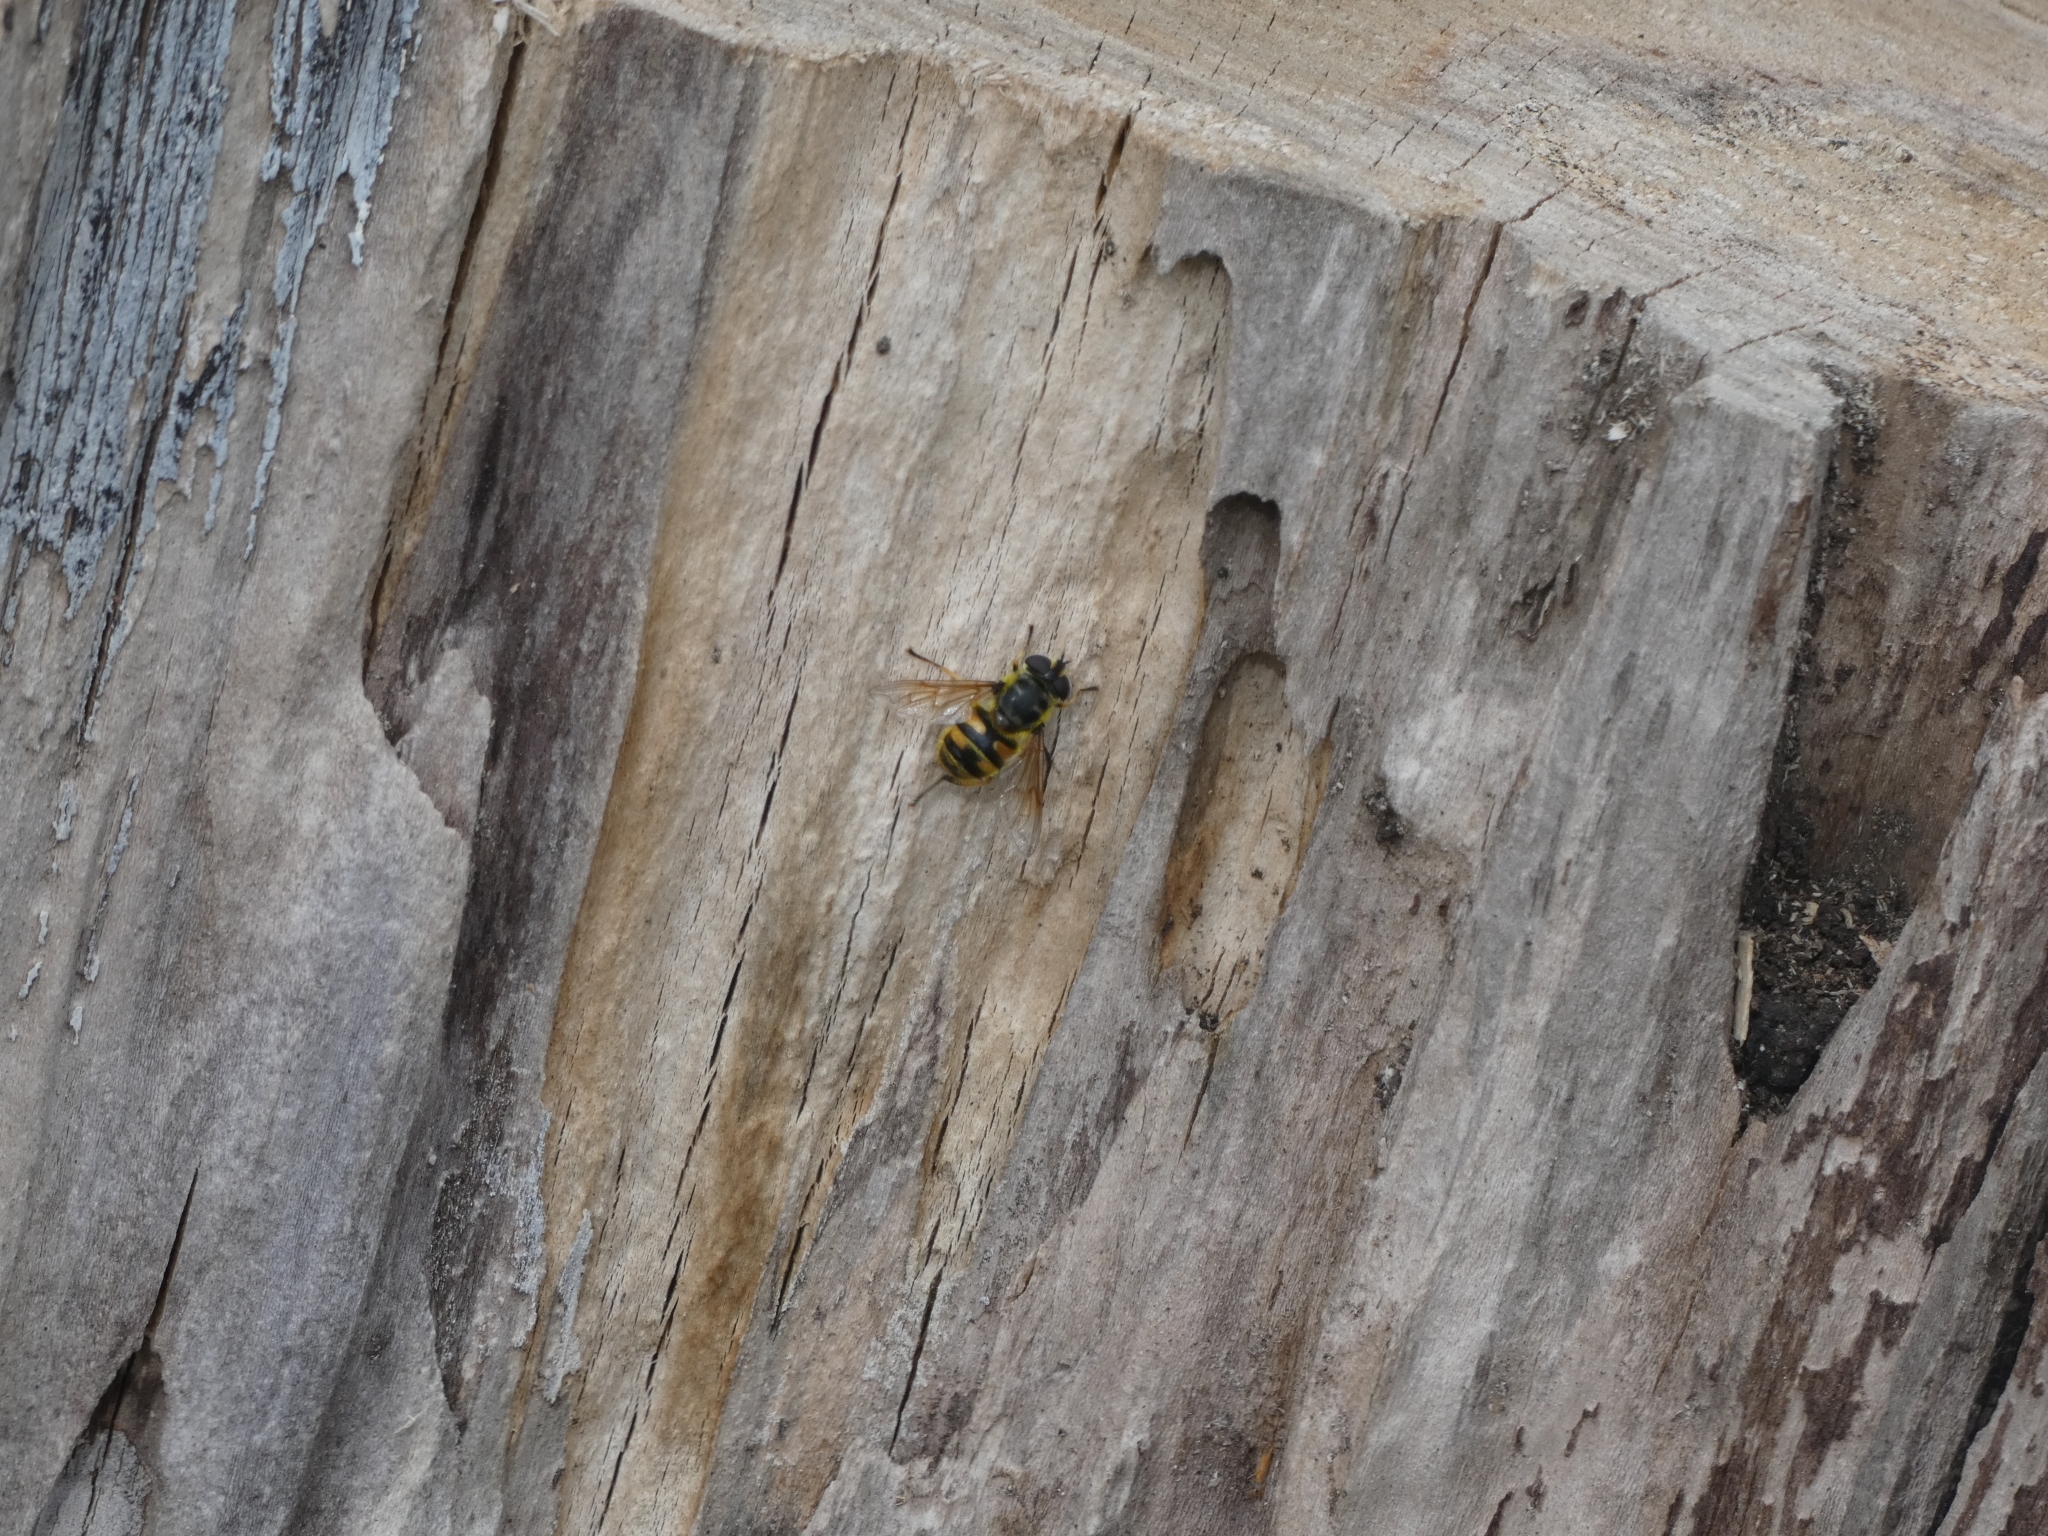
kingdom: Animalia
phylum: Arthropoda
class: Insecta
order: Diptera
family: Syrphidae
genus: Myathropa
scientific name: Myathropa florea
